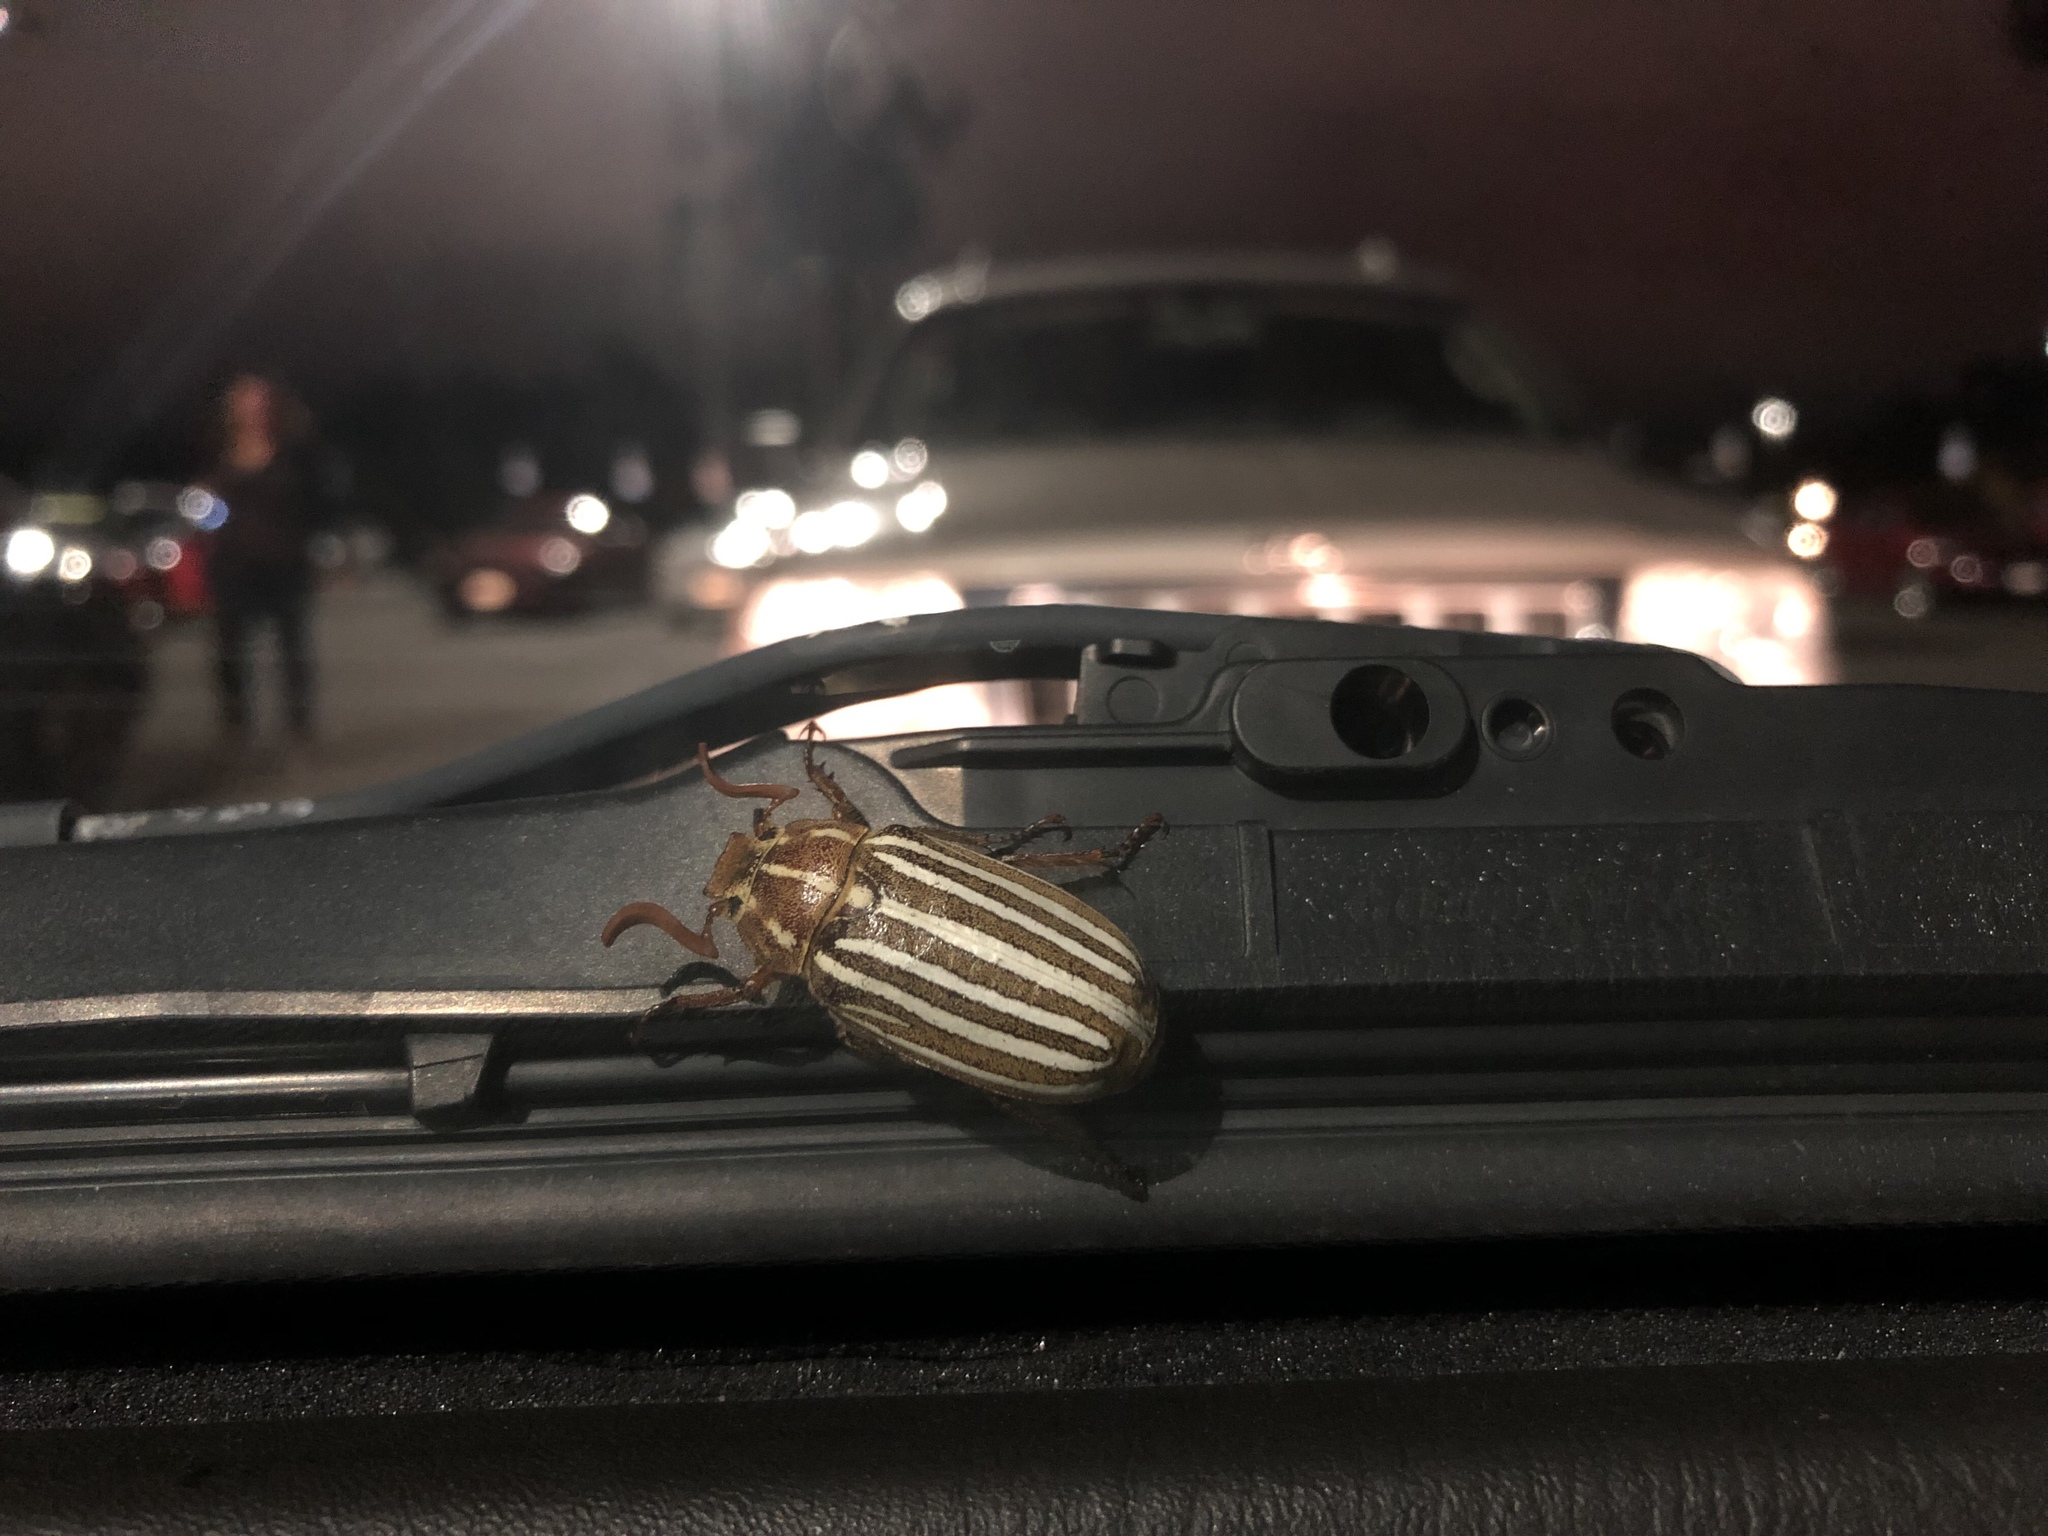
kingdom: Animalia
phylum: Arthropoda
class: Insecta
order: Coleoptera
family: Scarabaeidae
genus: Polyphylla
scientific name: Polyphylla decemlineata
